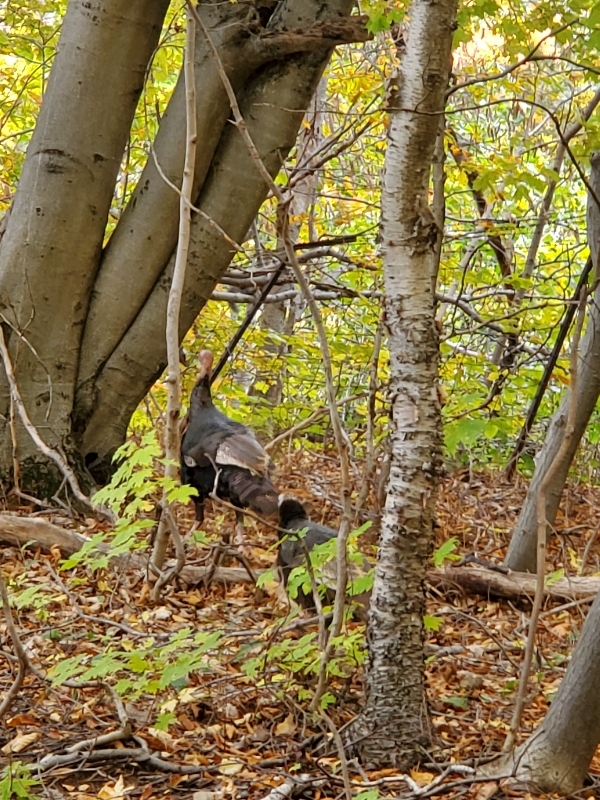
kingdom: Animalia
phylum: Chordata
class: Aves
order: Galliformes
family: Phasianidae
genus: Meleagris
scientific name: Meleagris gallopavo
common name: Wild turkey
